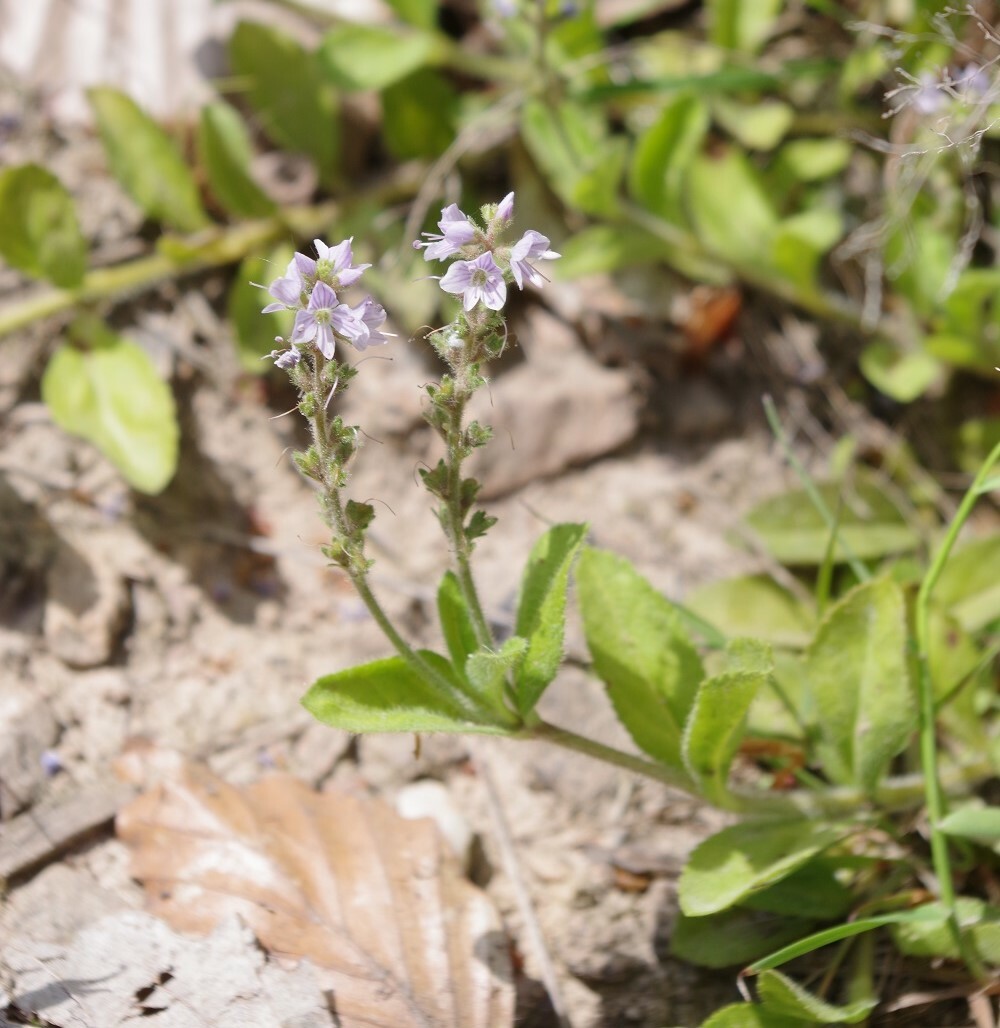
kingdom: Plantae
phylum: Tracheophyta
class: Magnoliopsida
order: Lamiales
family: Plantaginaceae
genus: Veronica
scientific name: Veronica officinalis
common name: Common speedwell
